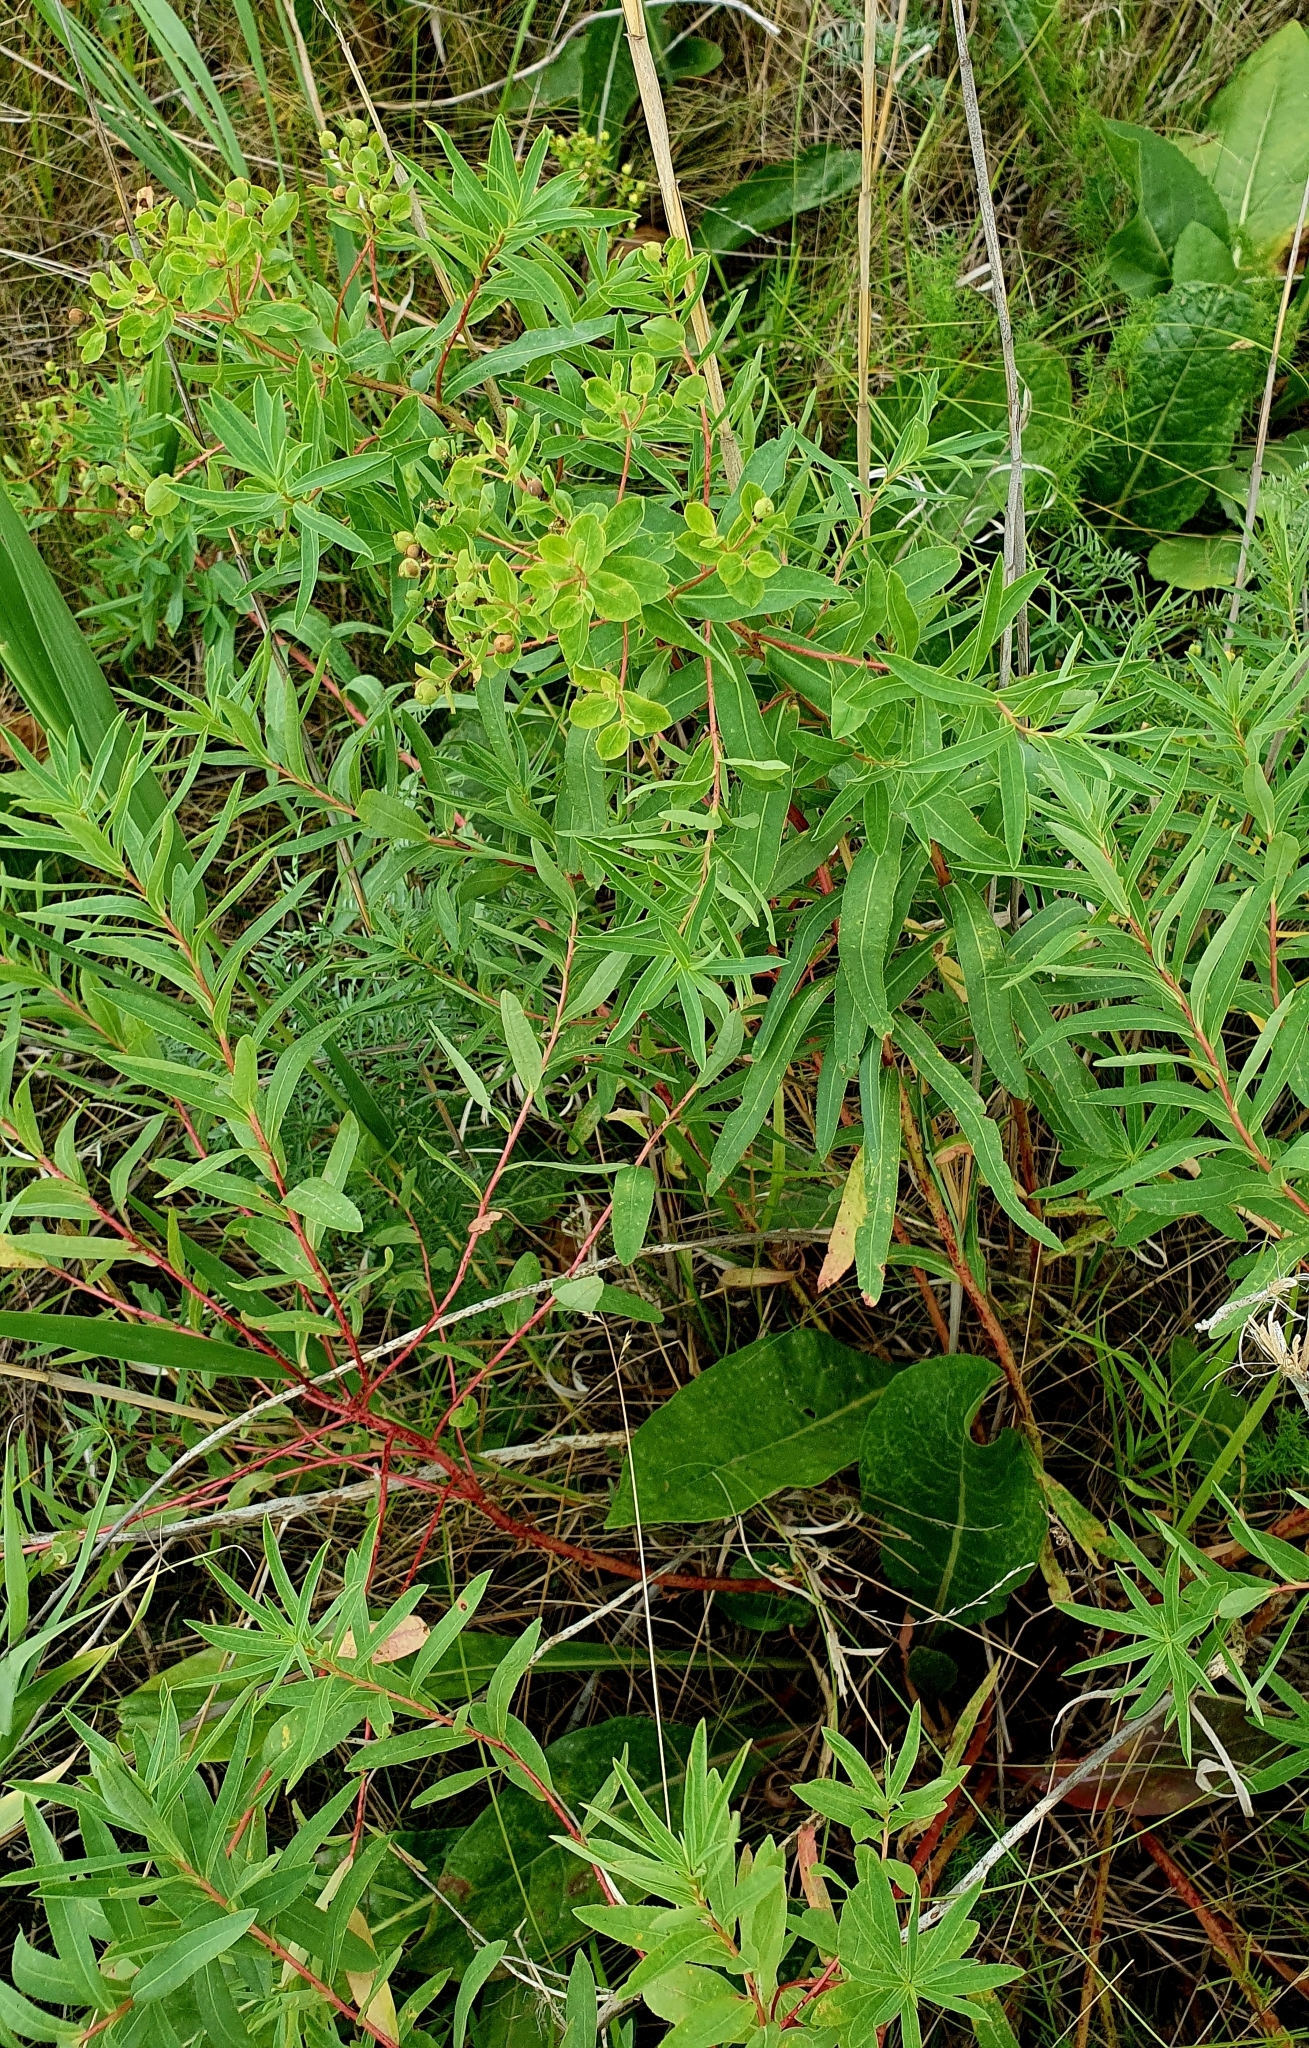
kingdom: Plantae
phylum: Tracheophyta
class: Magnoliopsida
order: Malpighiales
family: Euphorbiaceae
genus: Euphorbia
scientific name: Euphorbia semivillosa
